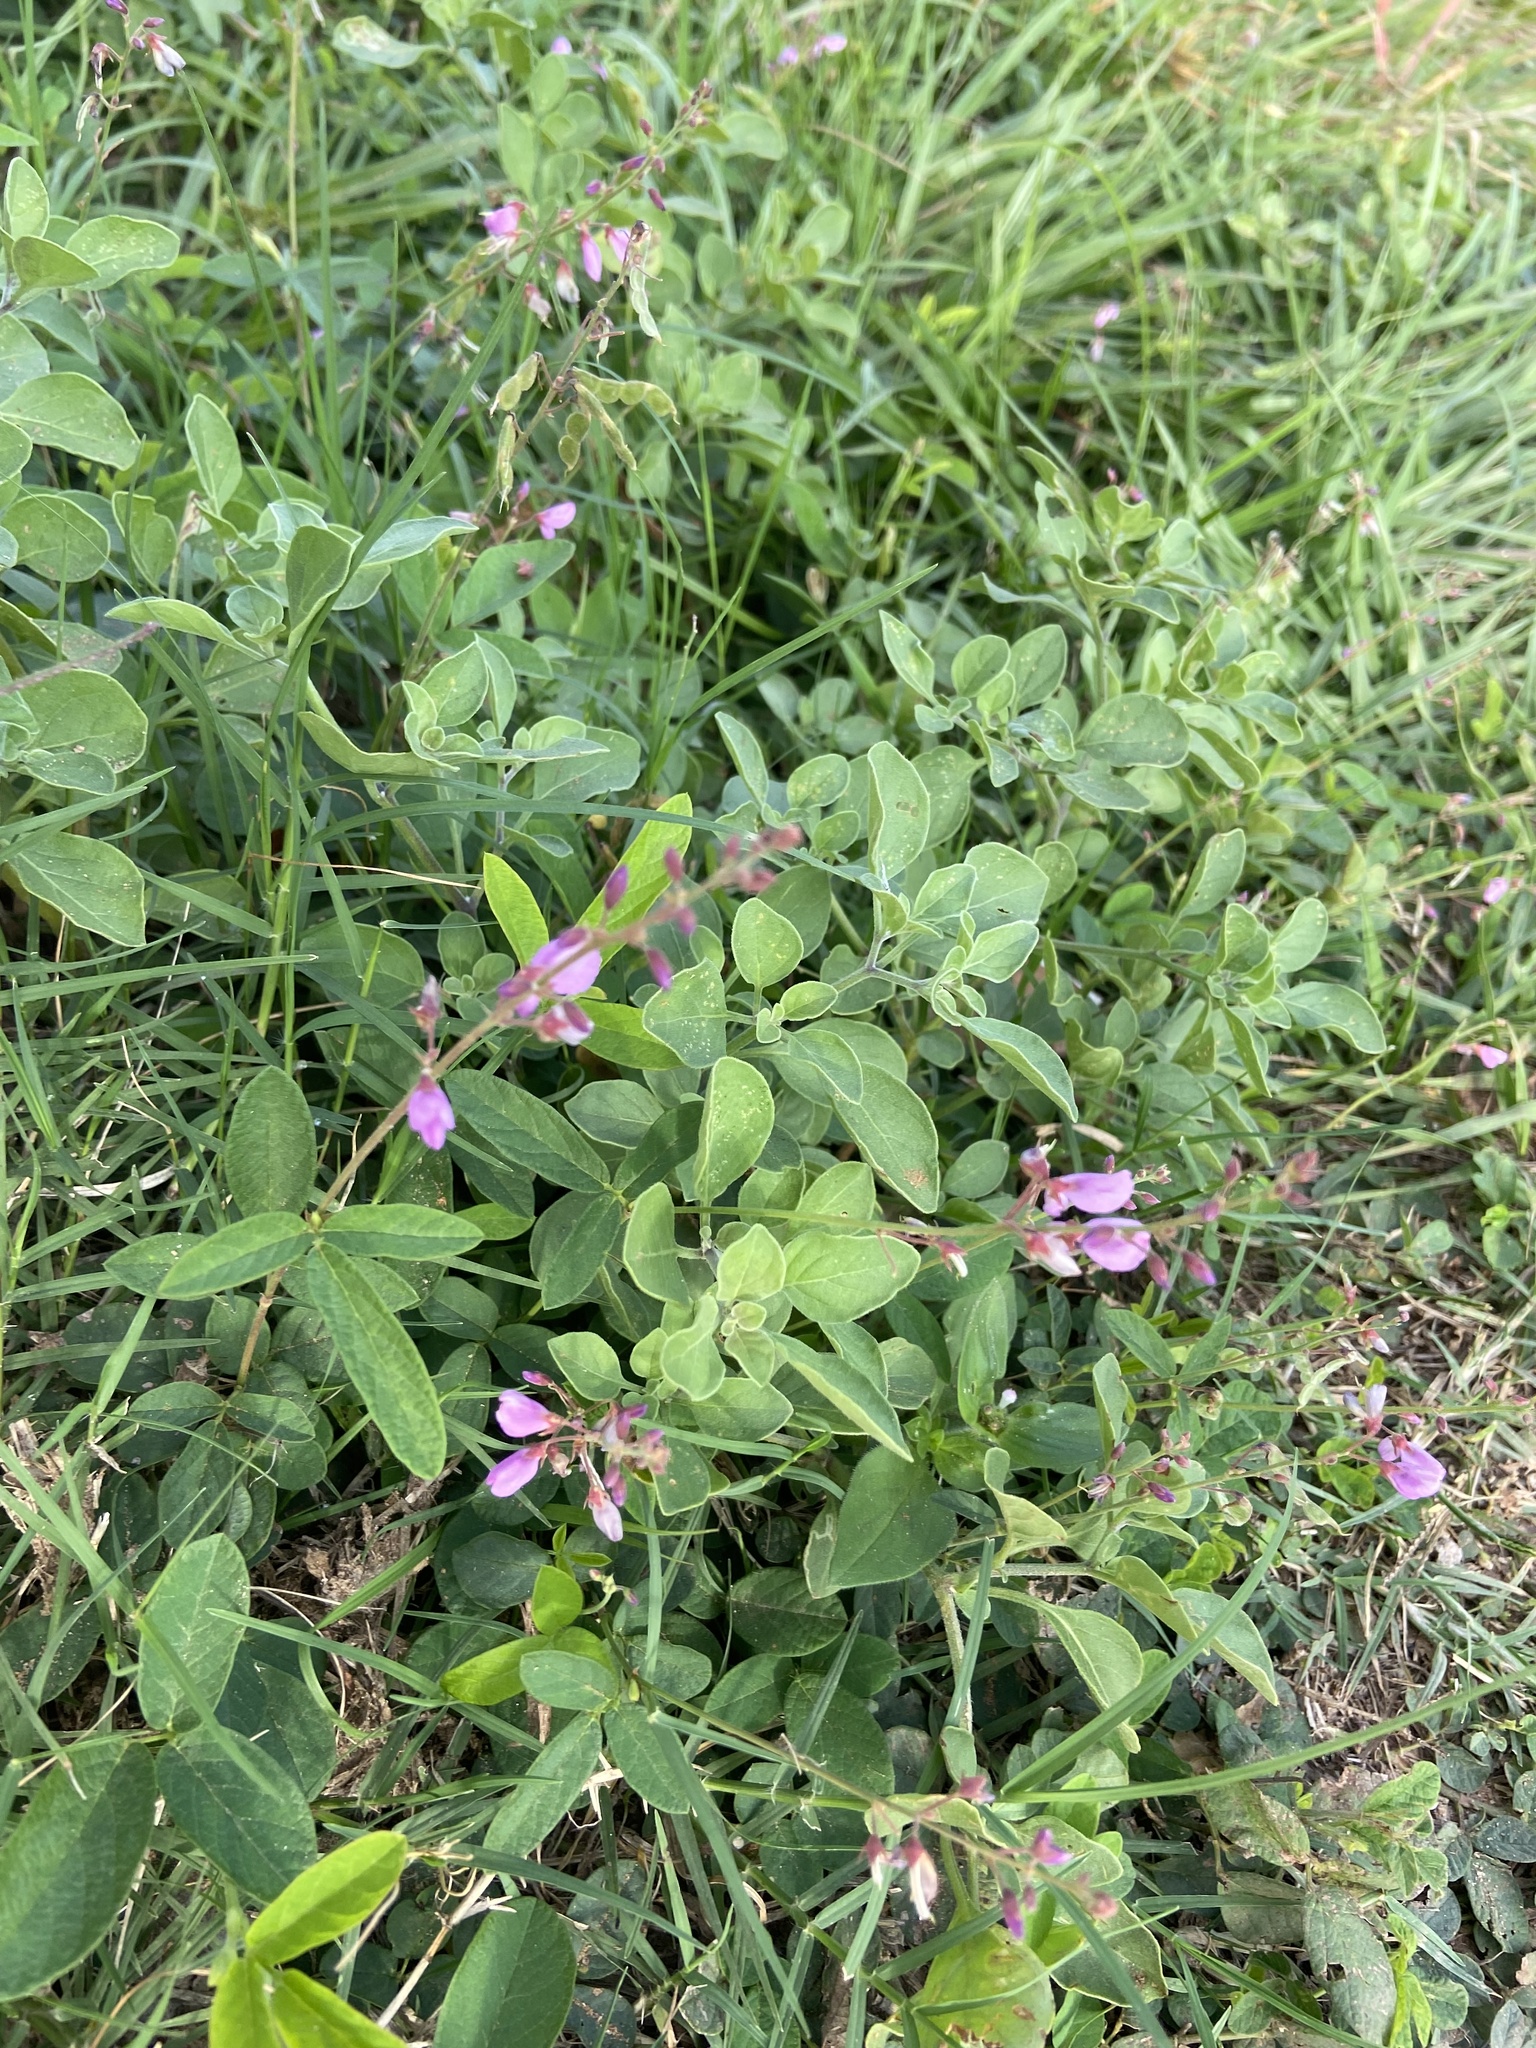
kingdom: Plantae
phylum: Tracheophyta
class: Magnoliopsida
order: Fabales
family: Fabaceae
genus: Desmodium
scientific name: Desmodium incanum
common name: Tickclover
